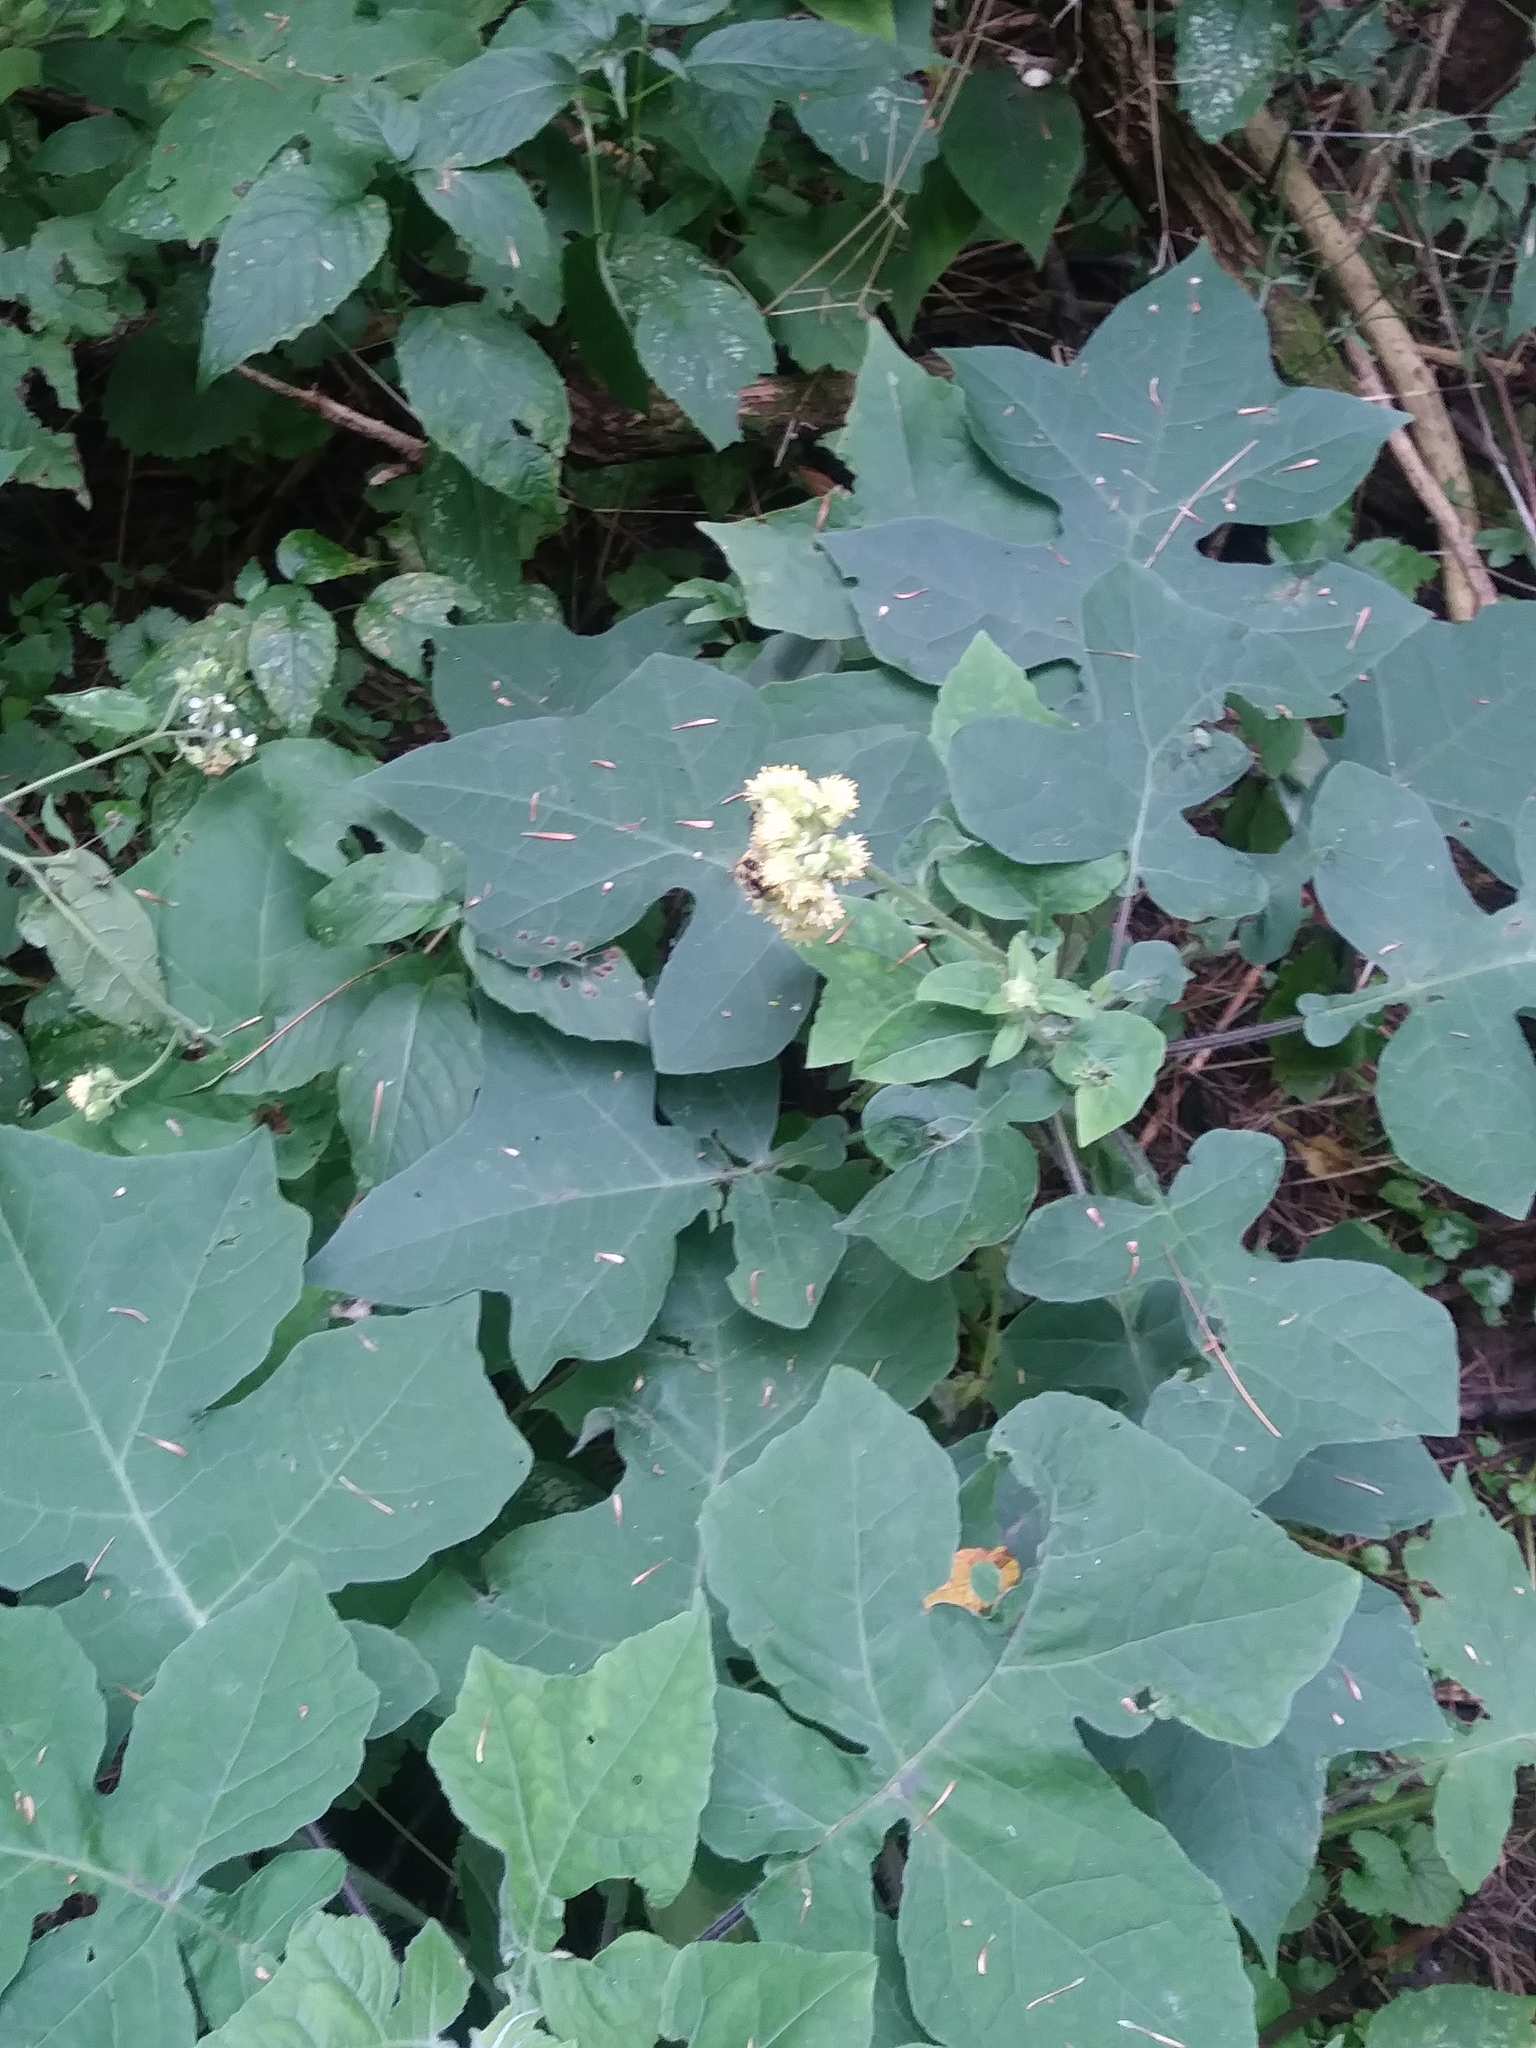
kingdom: Plantae
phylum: Tracheophyta
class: Magnoliopsida
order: Asterales
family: Asteraceae
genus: Polymnia
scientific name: Polymnia canadensis
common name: Pale-flowered leafcup
